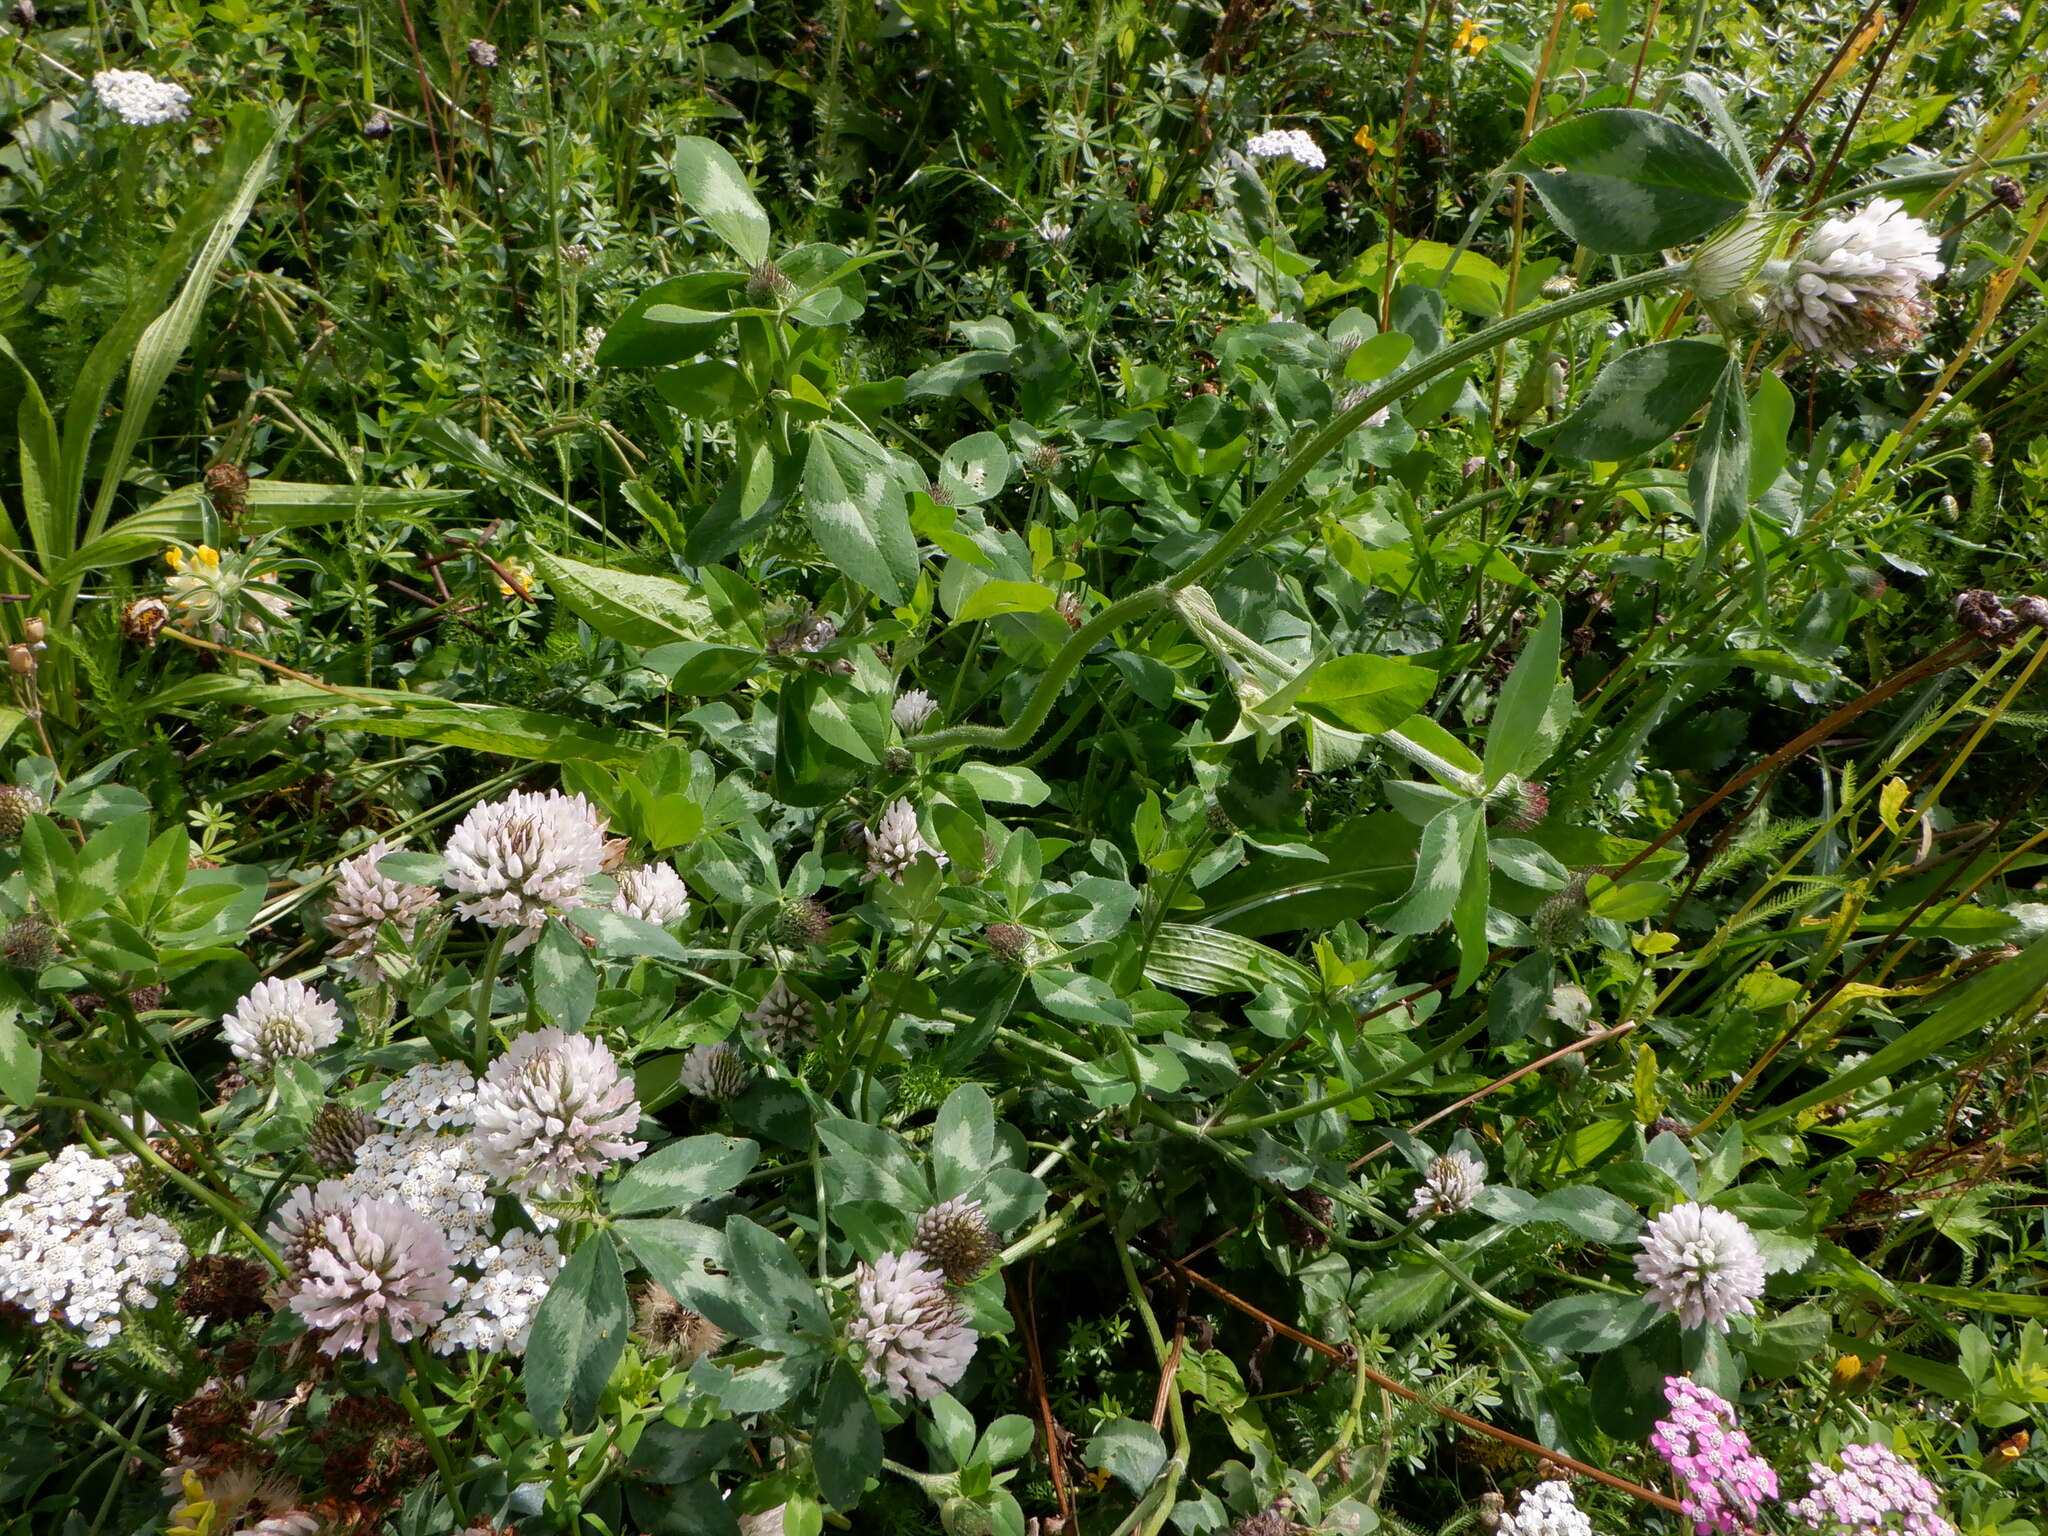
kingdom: Plantae
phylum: Tracheophyta
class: Magnoliopsida
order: Fabales
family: Fabaceae
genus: Trifolium
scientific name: Trifolium pratense
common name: Red clover
